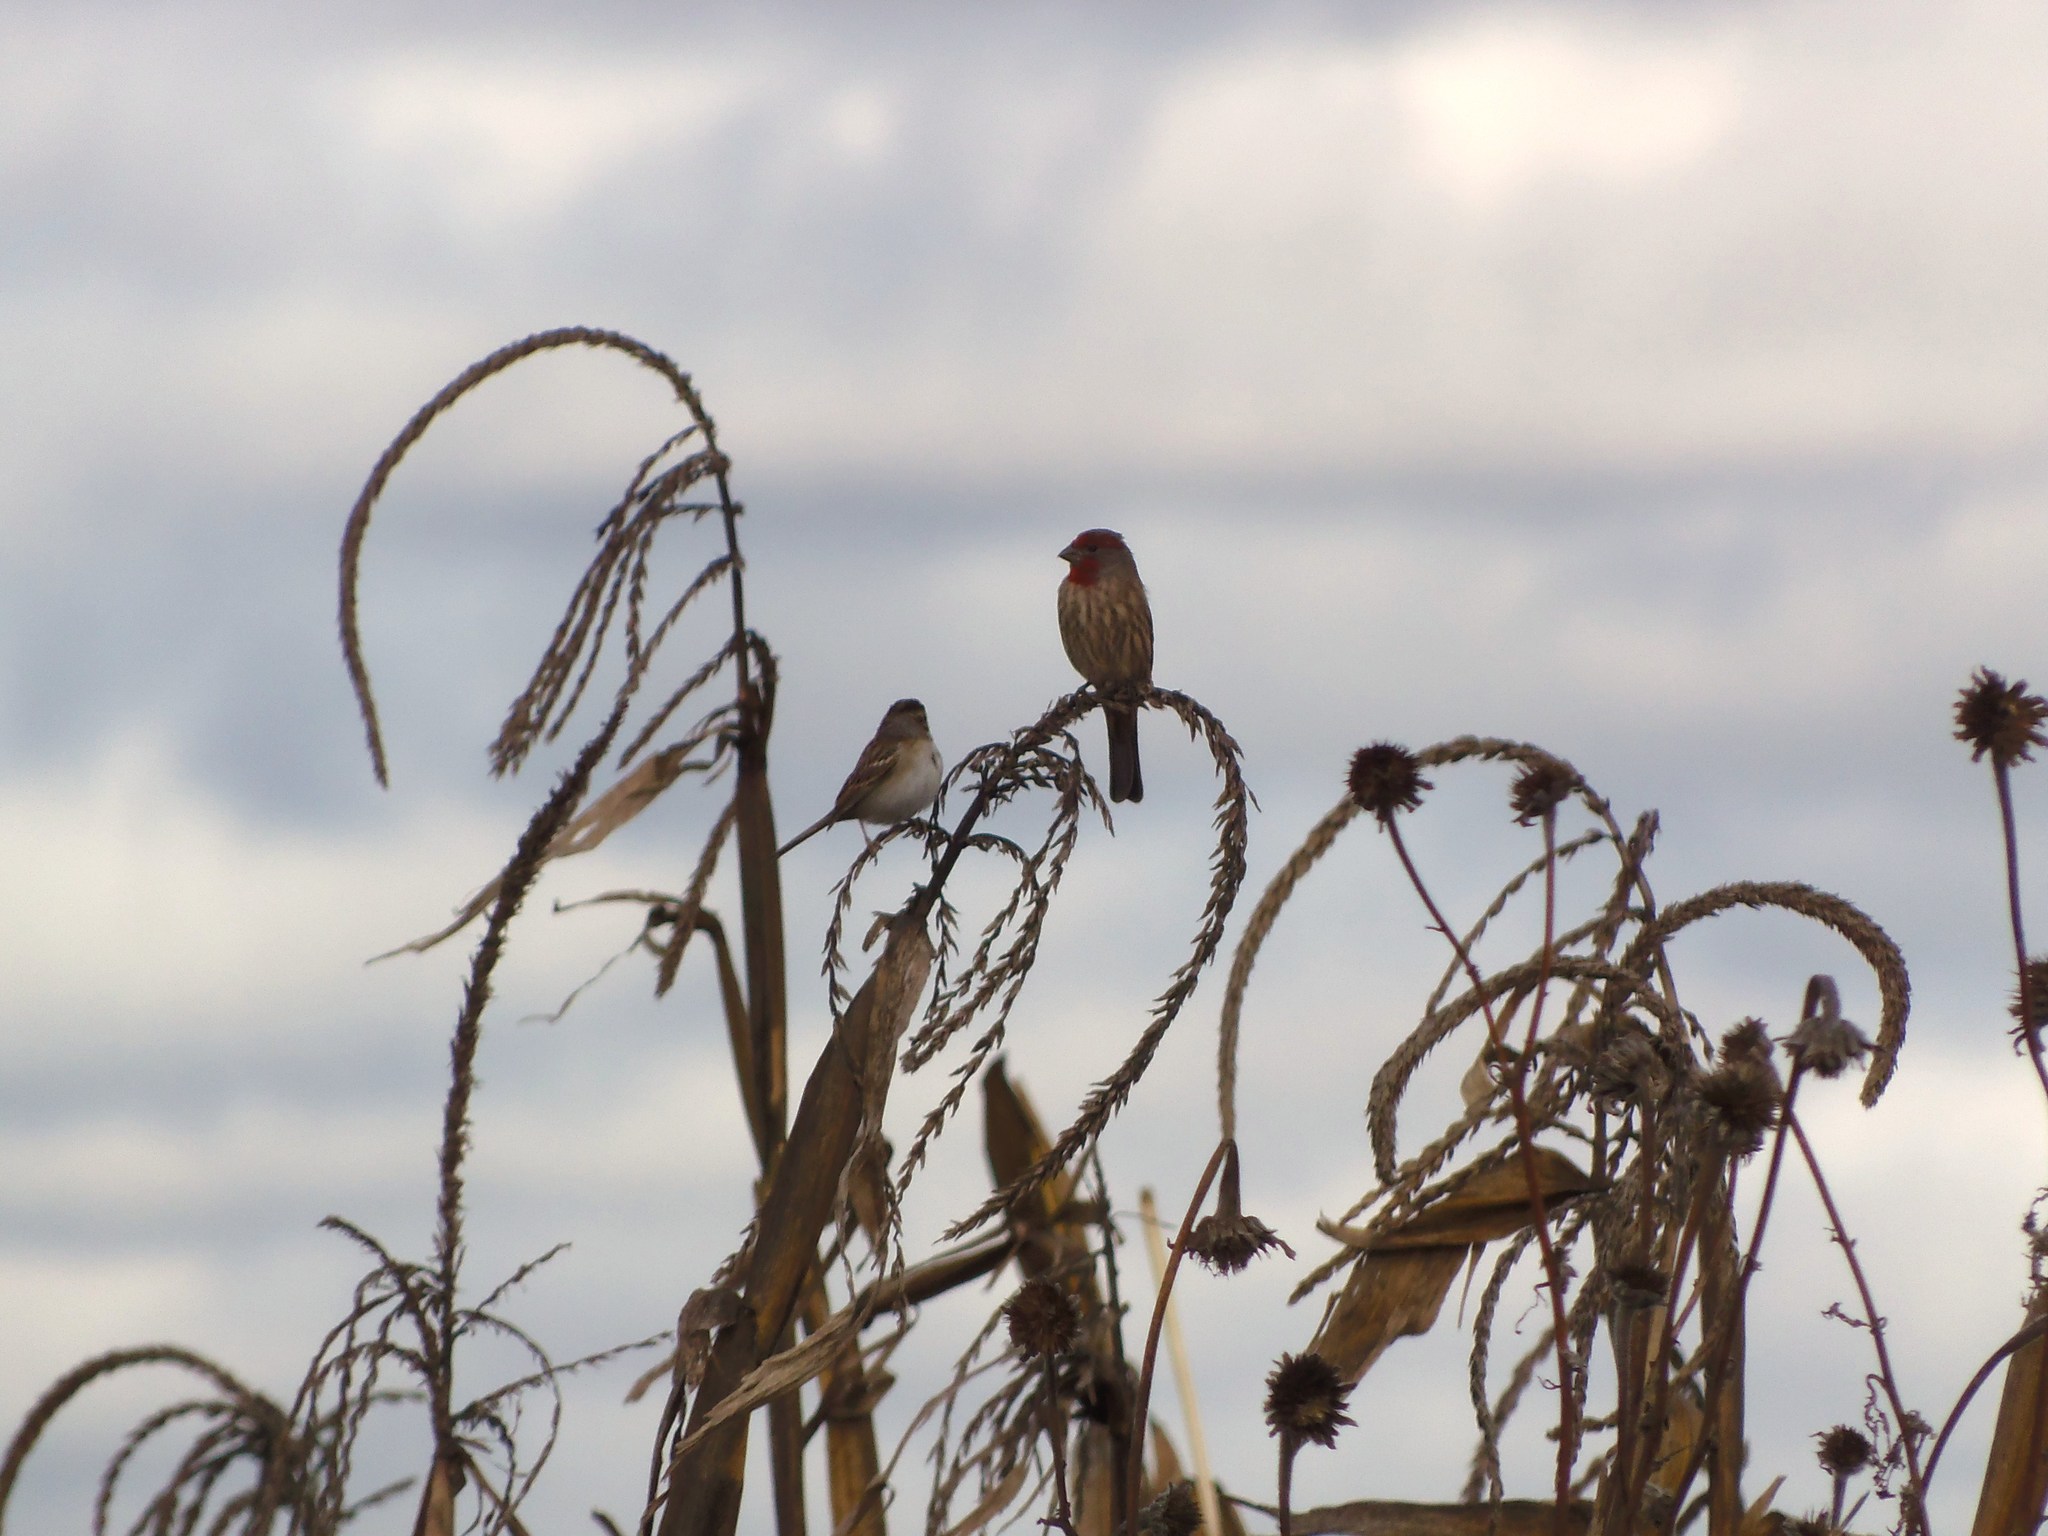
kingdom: Animalia
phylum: Chordata
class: Aves
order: Passeriformes
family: Fringillidae
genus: Haemorhous
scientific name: Haemorhous mexicanus
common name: House finch
